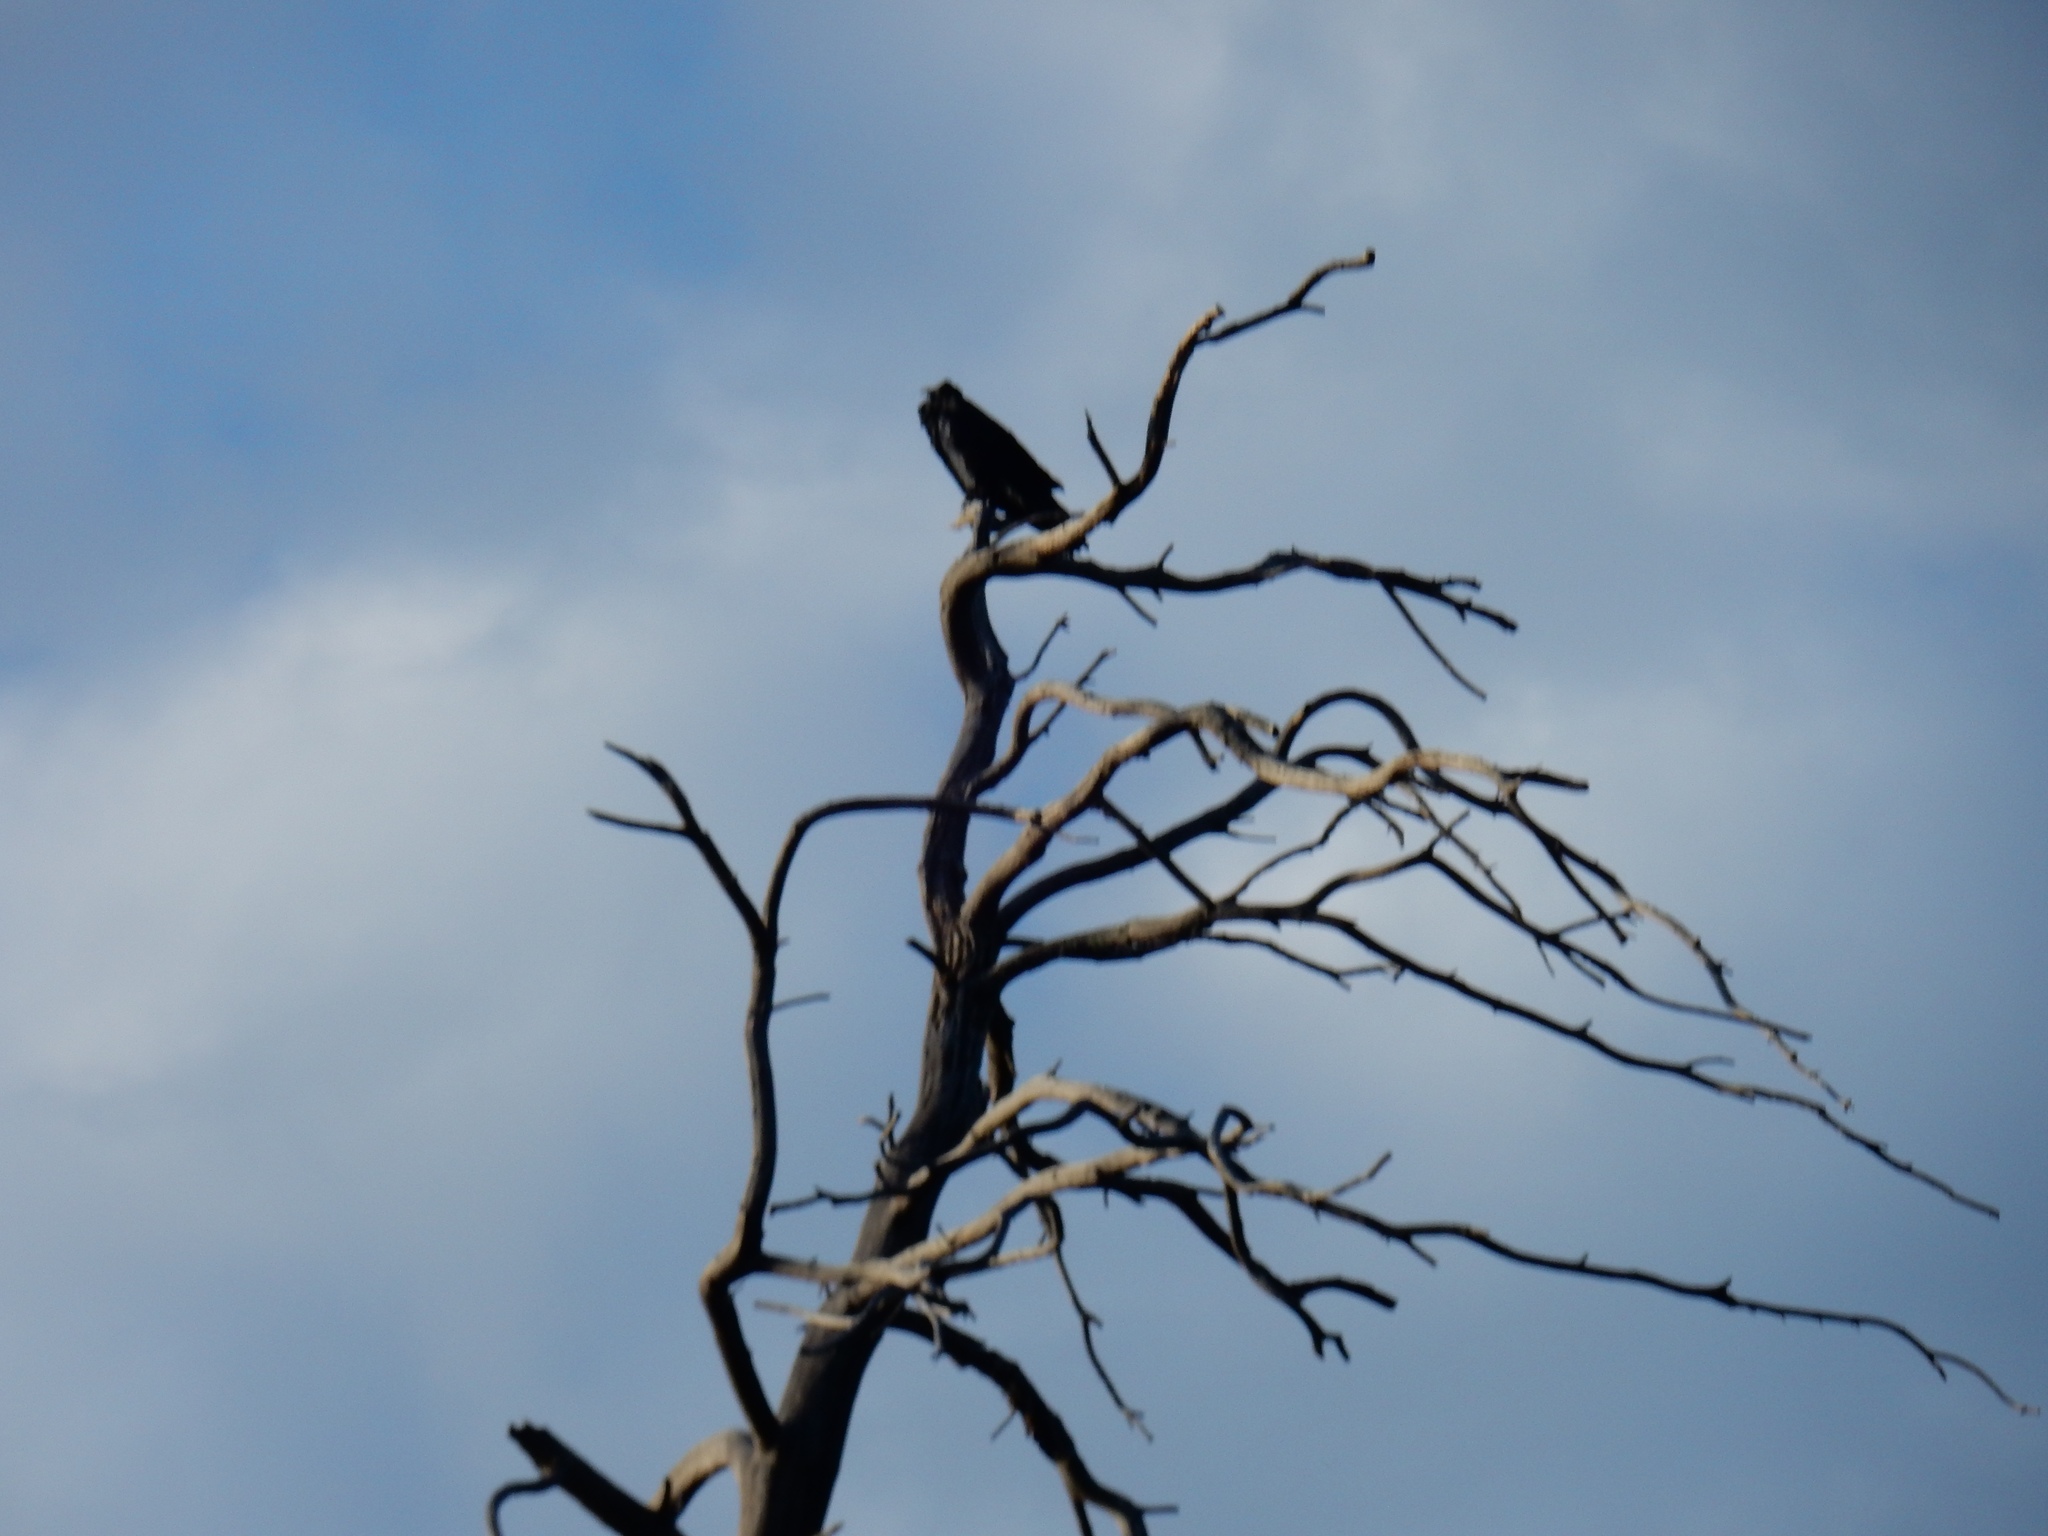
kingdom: Animalia
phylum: Chordata
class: Aves
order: Passeriformes
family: Corvidae
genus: Corvus
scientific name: Corvus corax
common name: Common raven
